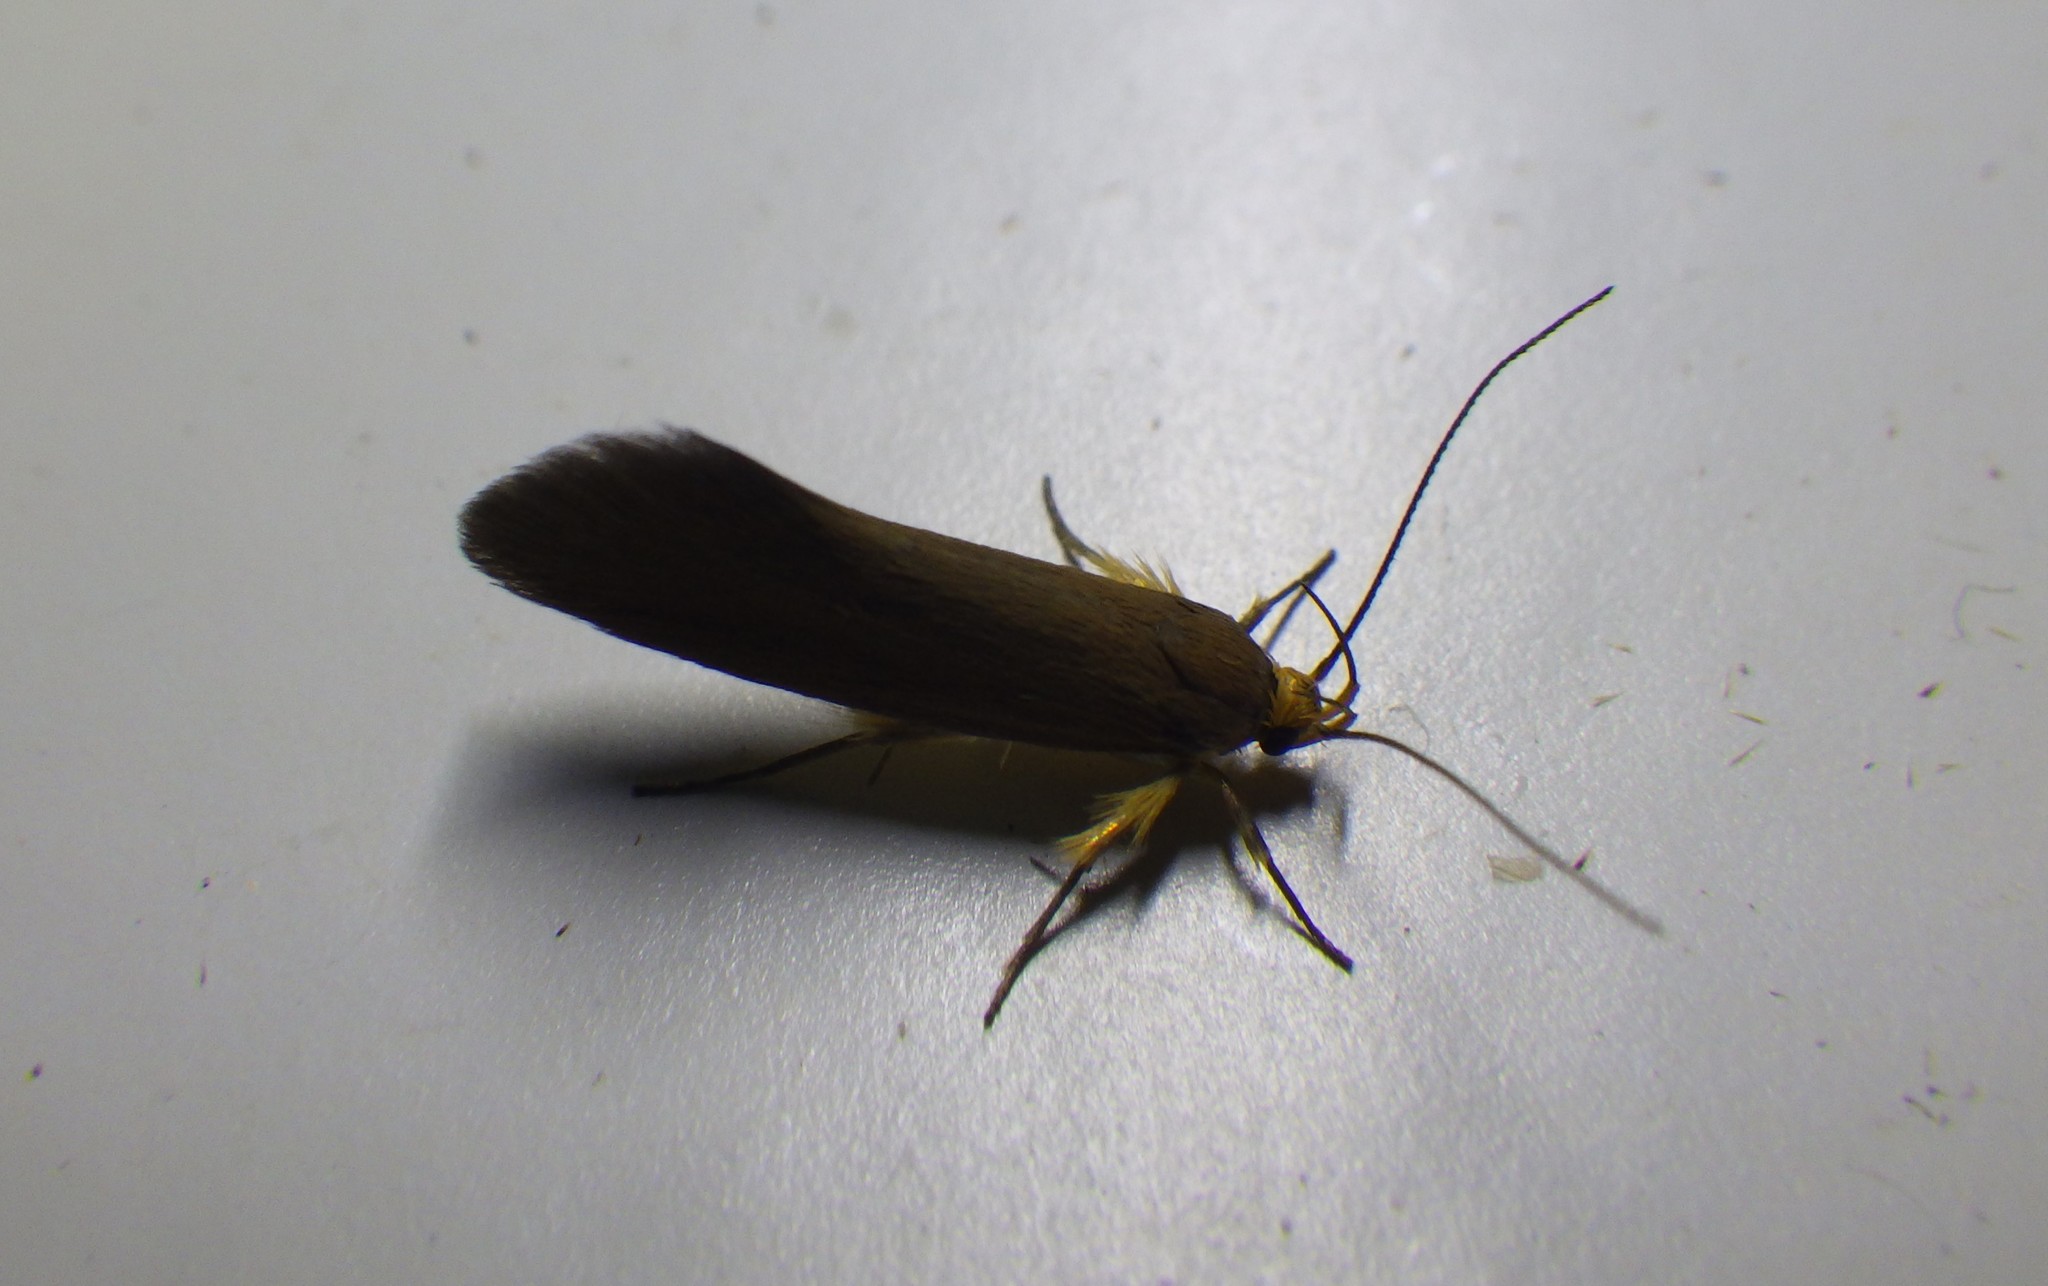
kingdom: Animalia
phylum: Arthropoda
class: Insecta
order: Lepidoptera
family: Oecophoridae
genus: Borkhausenia
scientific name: Borkhausenia Crassa unitella
